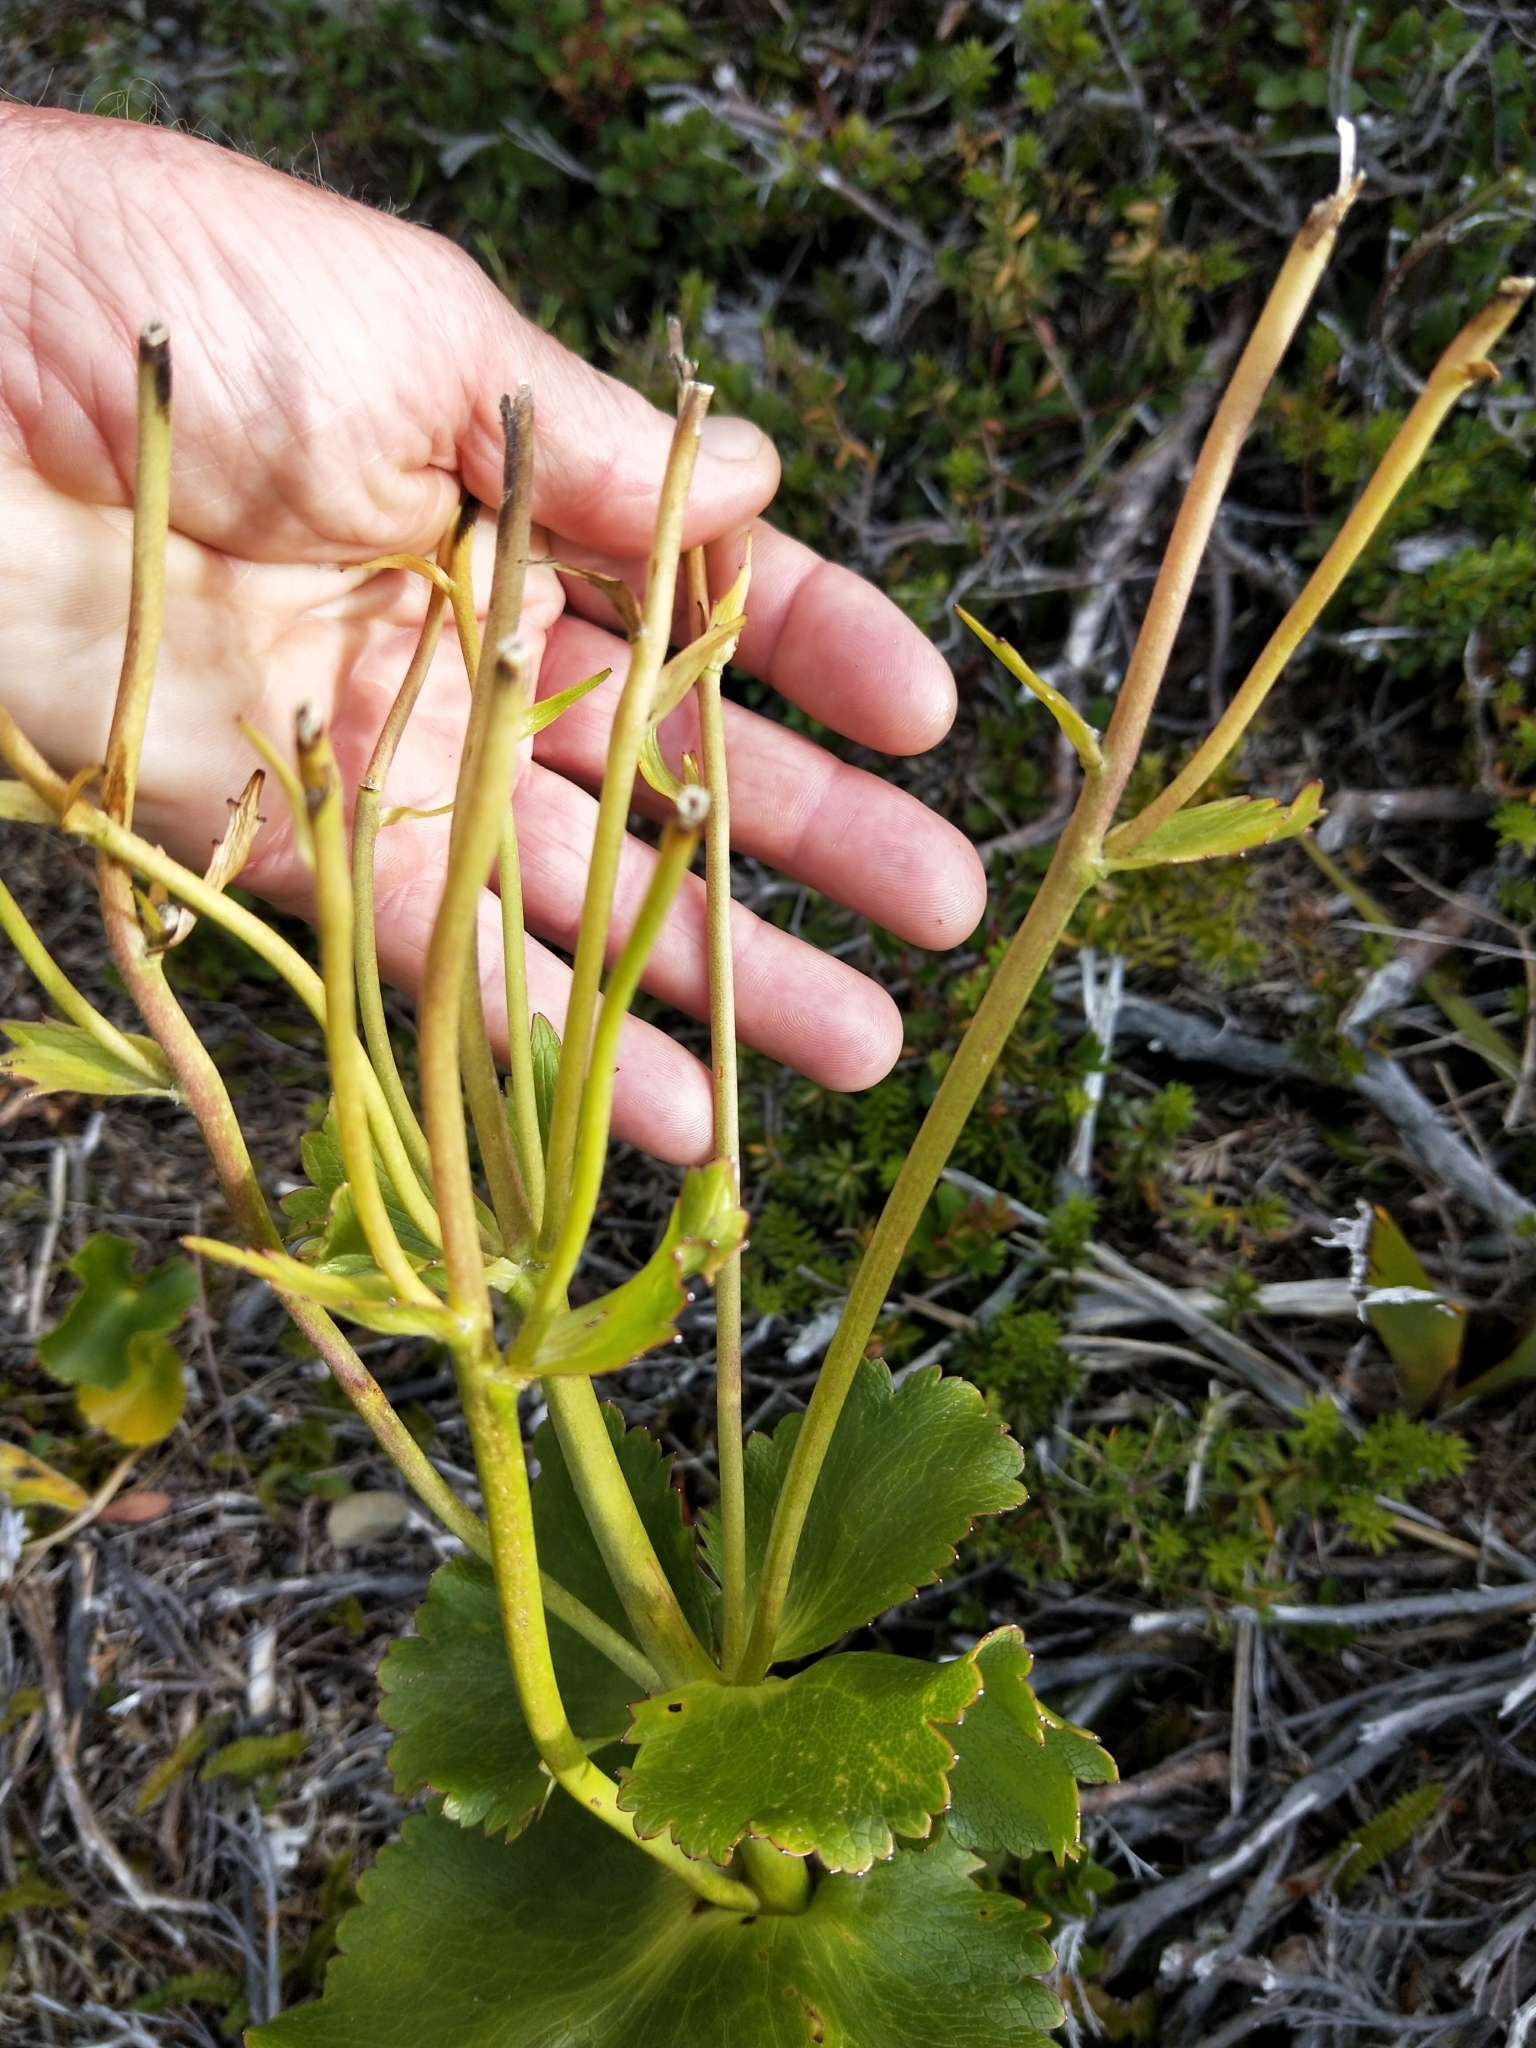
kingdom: Plantae
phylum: Tracheophyta
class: Magnoliopsida
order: Ranunculales
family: Ranunculaceae
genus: Ranunculus
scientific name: Ranunculus lyallii
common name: Mountain-lily
